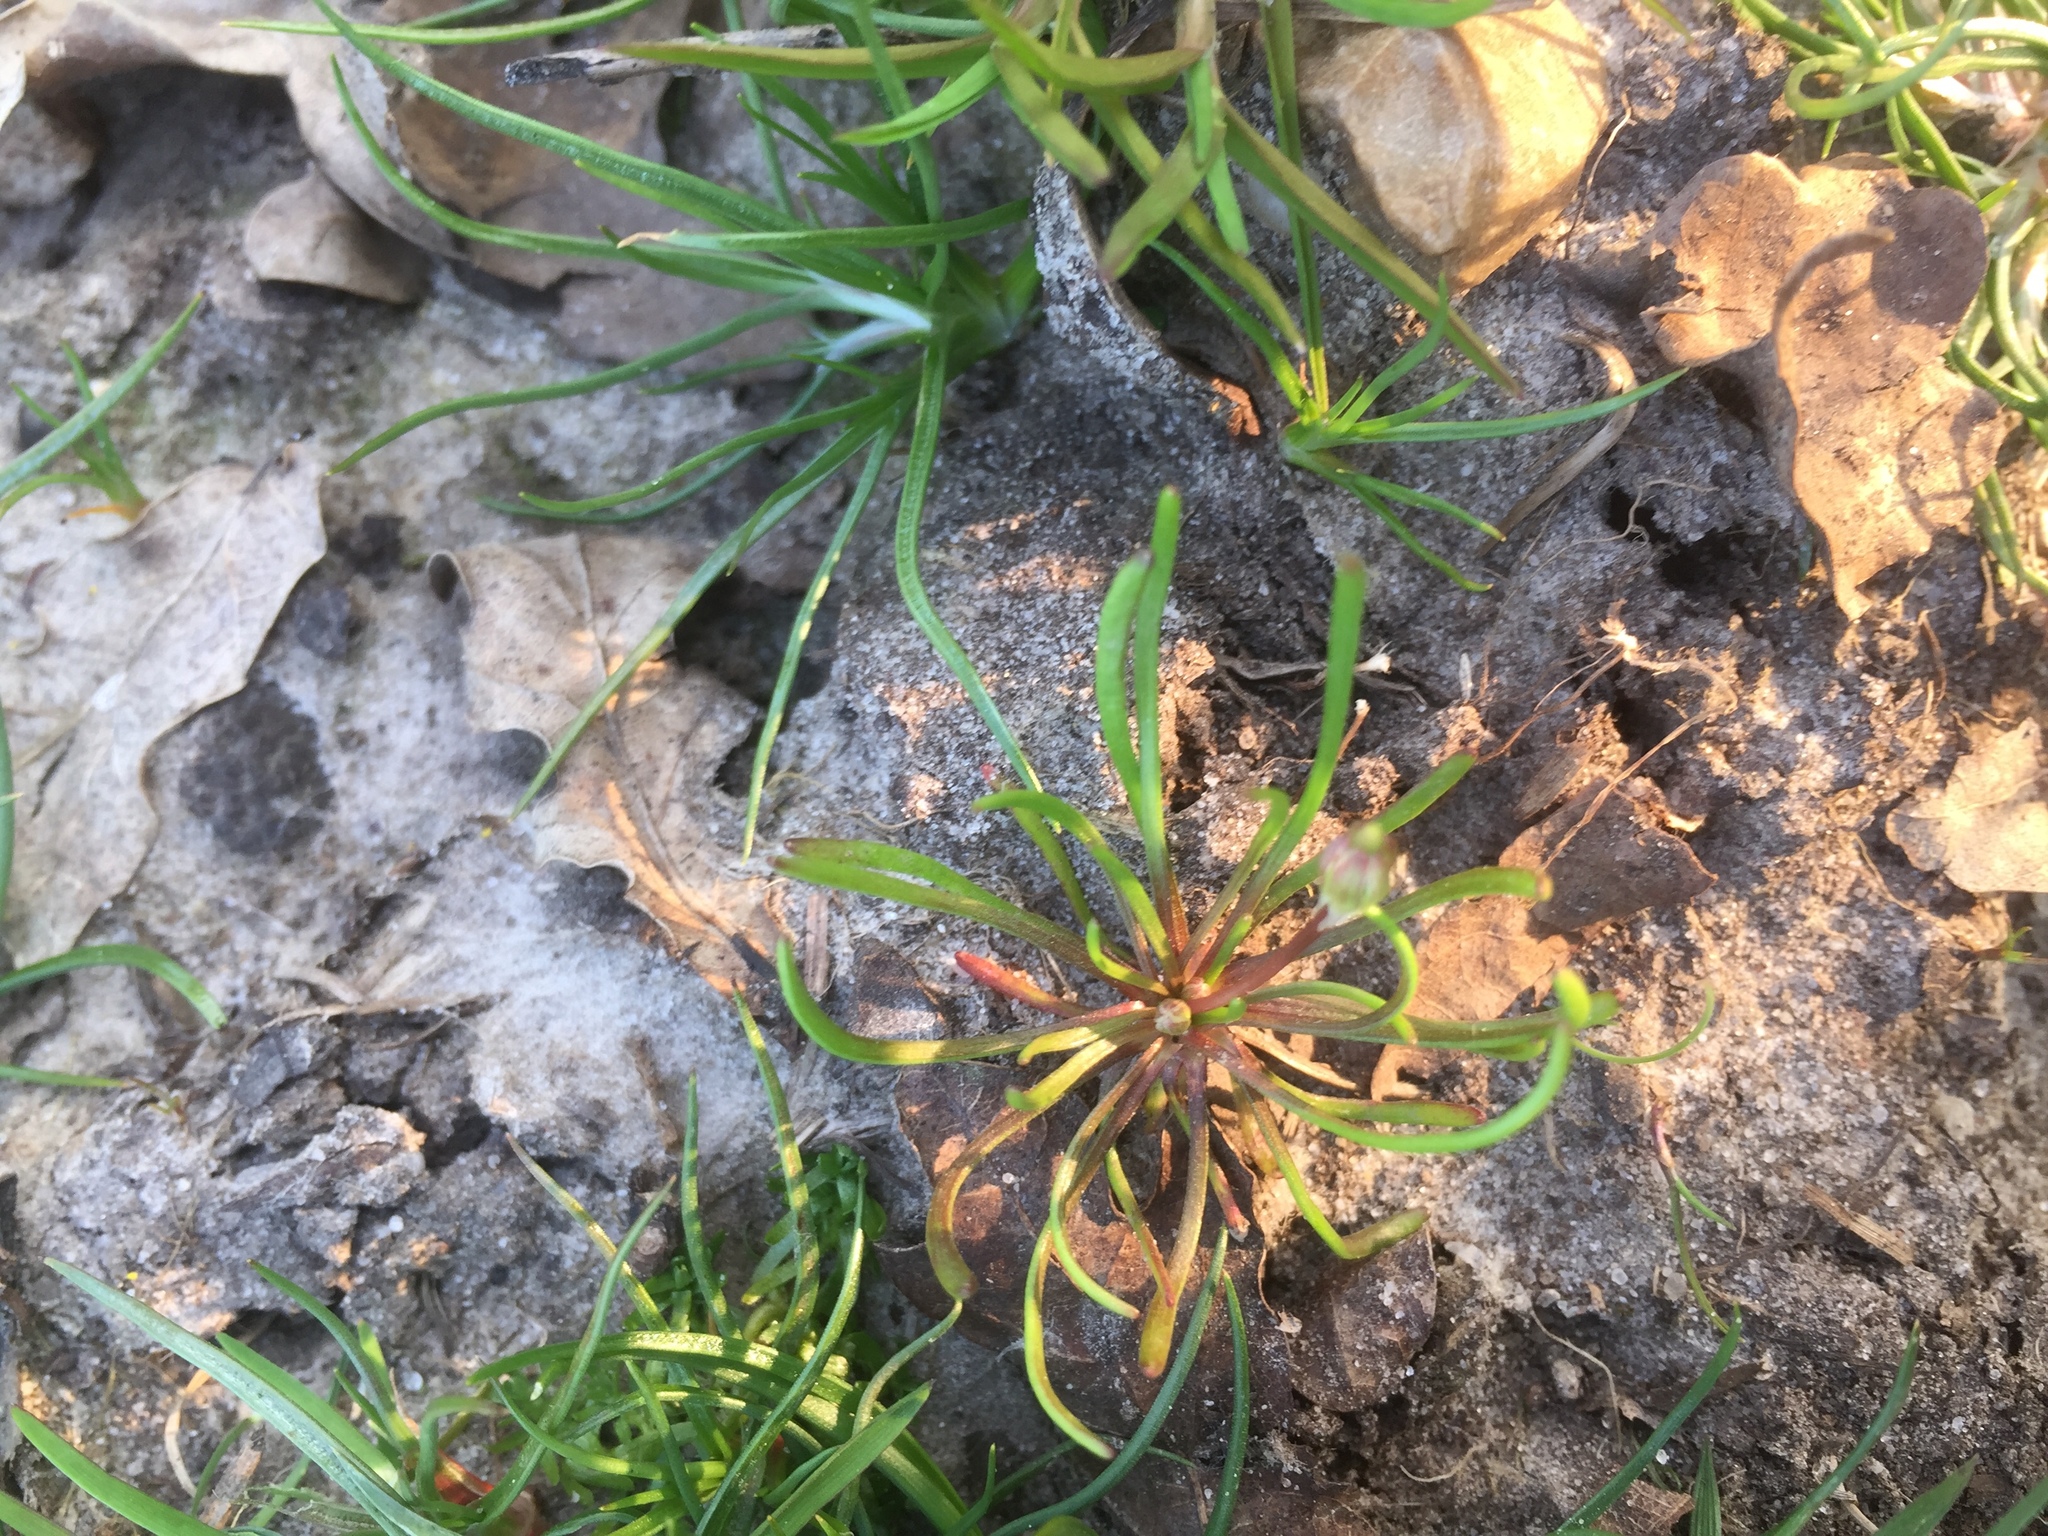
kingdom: Plantae
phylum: Tracheophyta
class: Magnoliopsida
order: Ranunculales
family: Ranunculaceae
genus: Myosurus
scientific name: Myosurus minimus
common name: Mousetail
